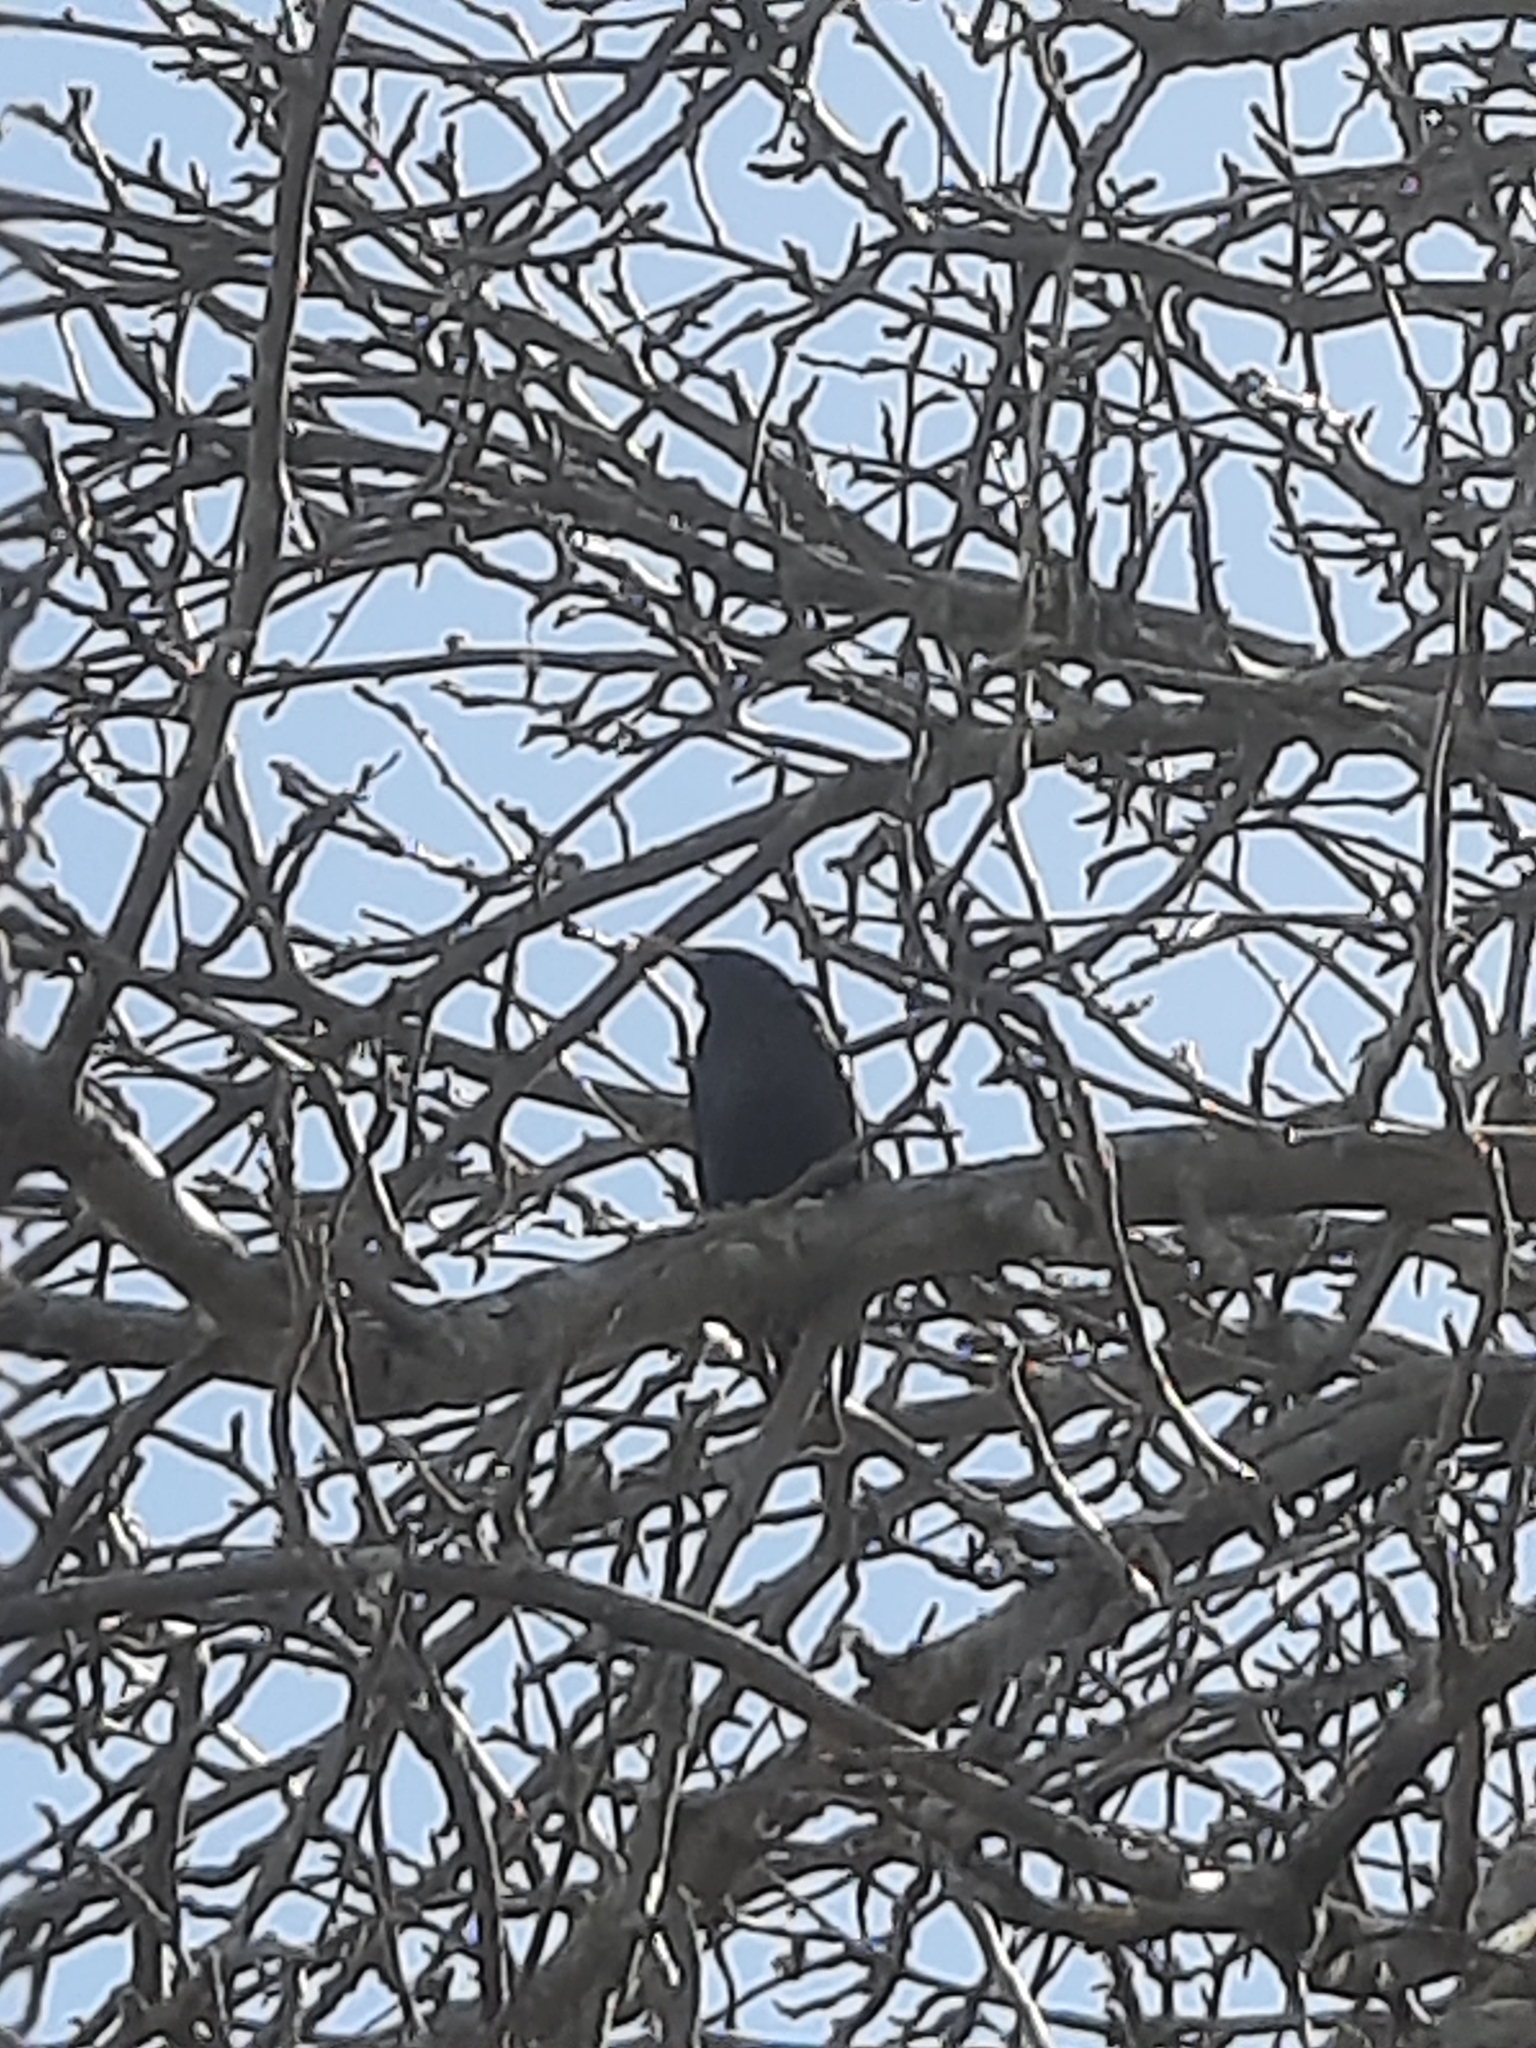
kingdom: Animalia
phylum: Chordata
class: Aves
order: Passeriformes
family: Sturnidae
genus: Sturnus
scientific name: Sturnus vulgaris
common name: Common starling
